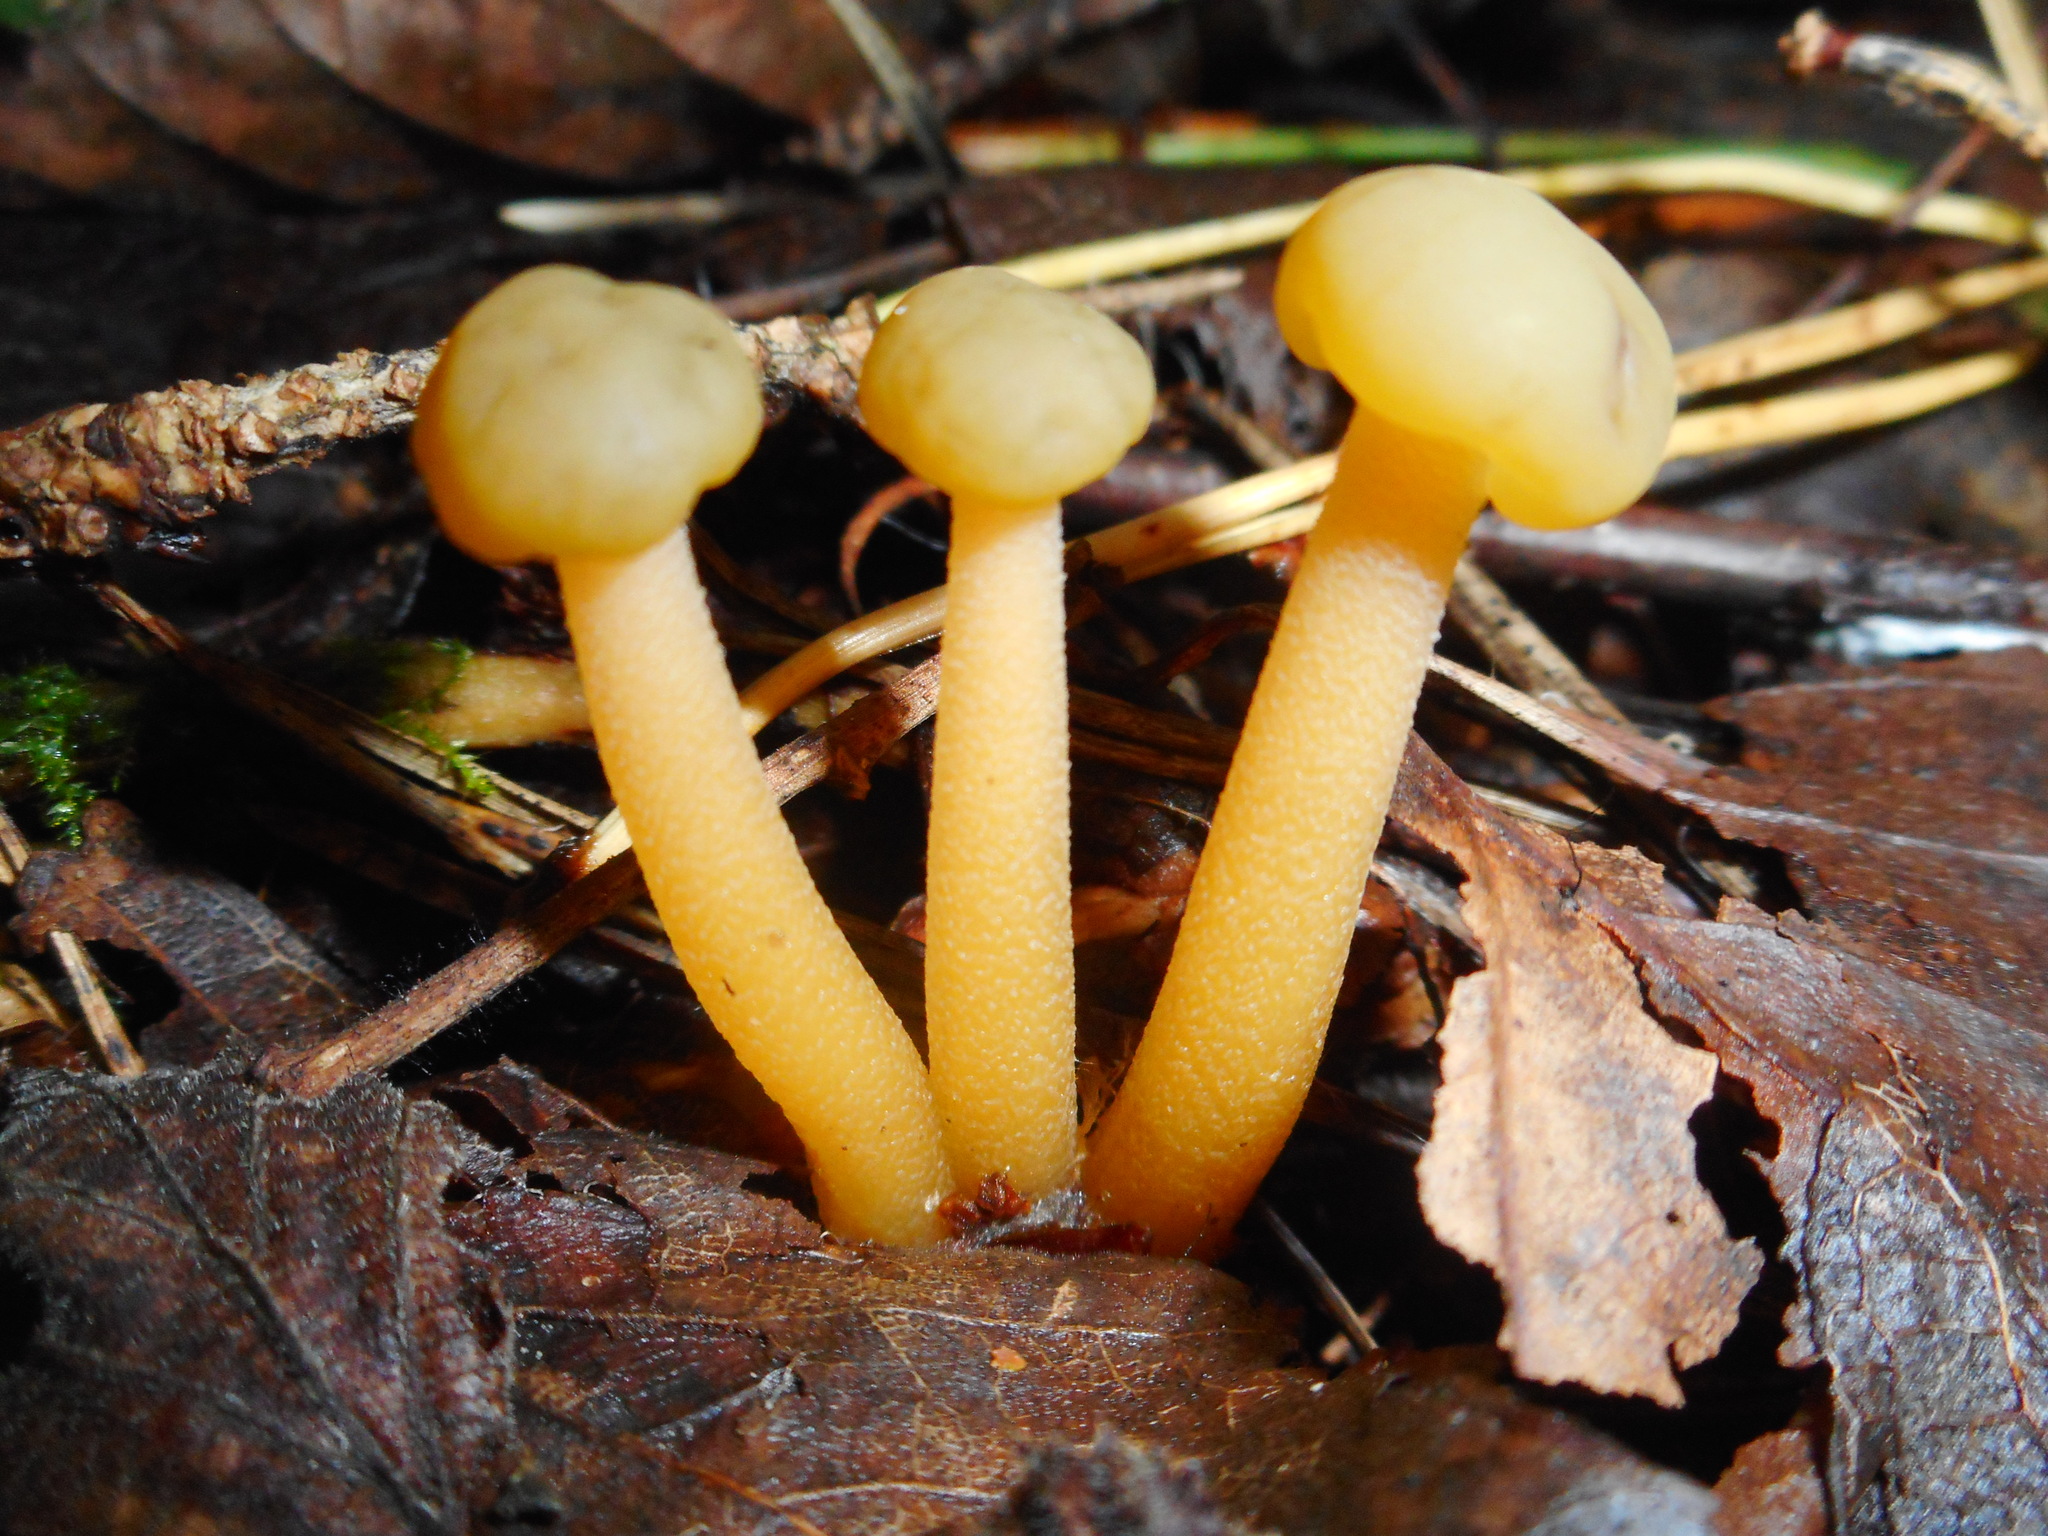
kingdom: Fungi
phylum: Ascomycota
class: Leotiomycetes
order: Leotiales
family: Leotiaceae
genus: Leotia
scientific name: Leotia lubrica
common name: Jellybaby
